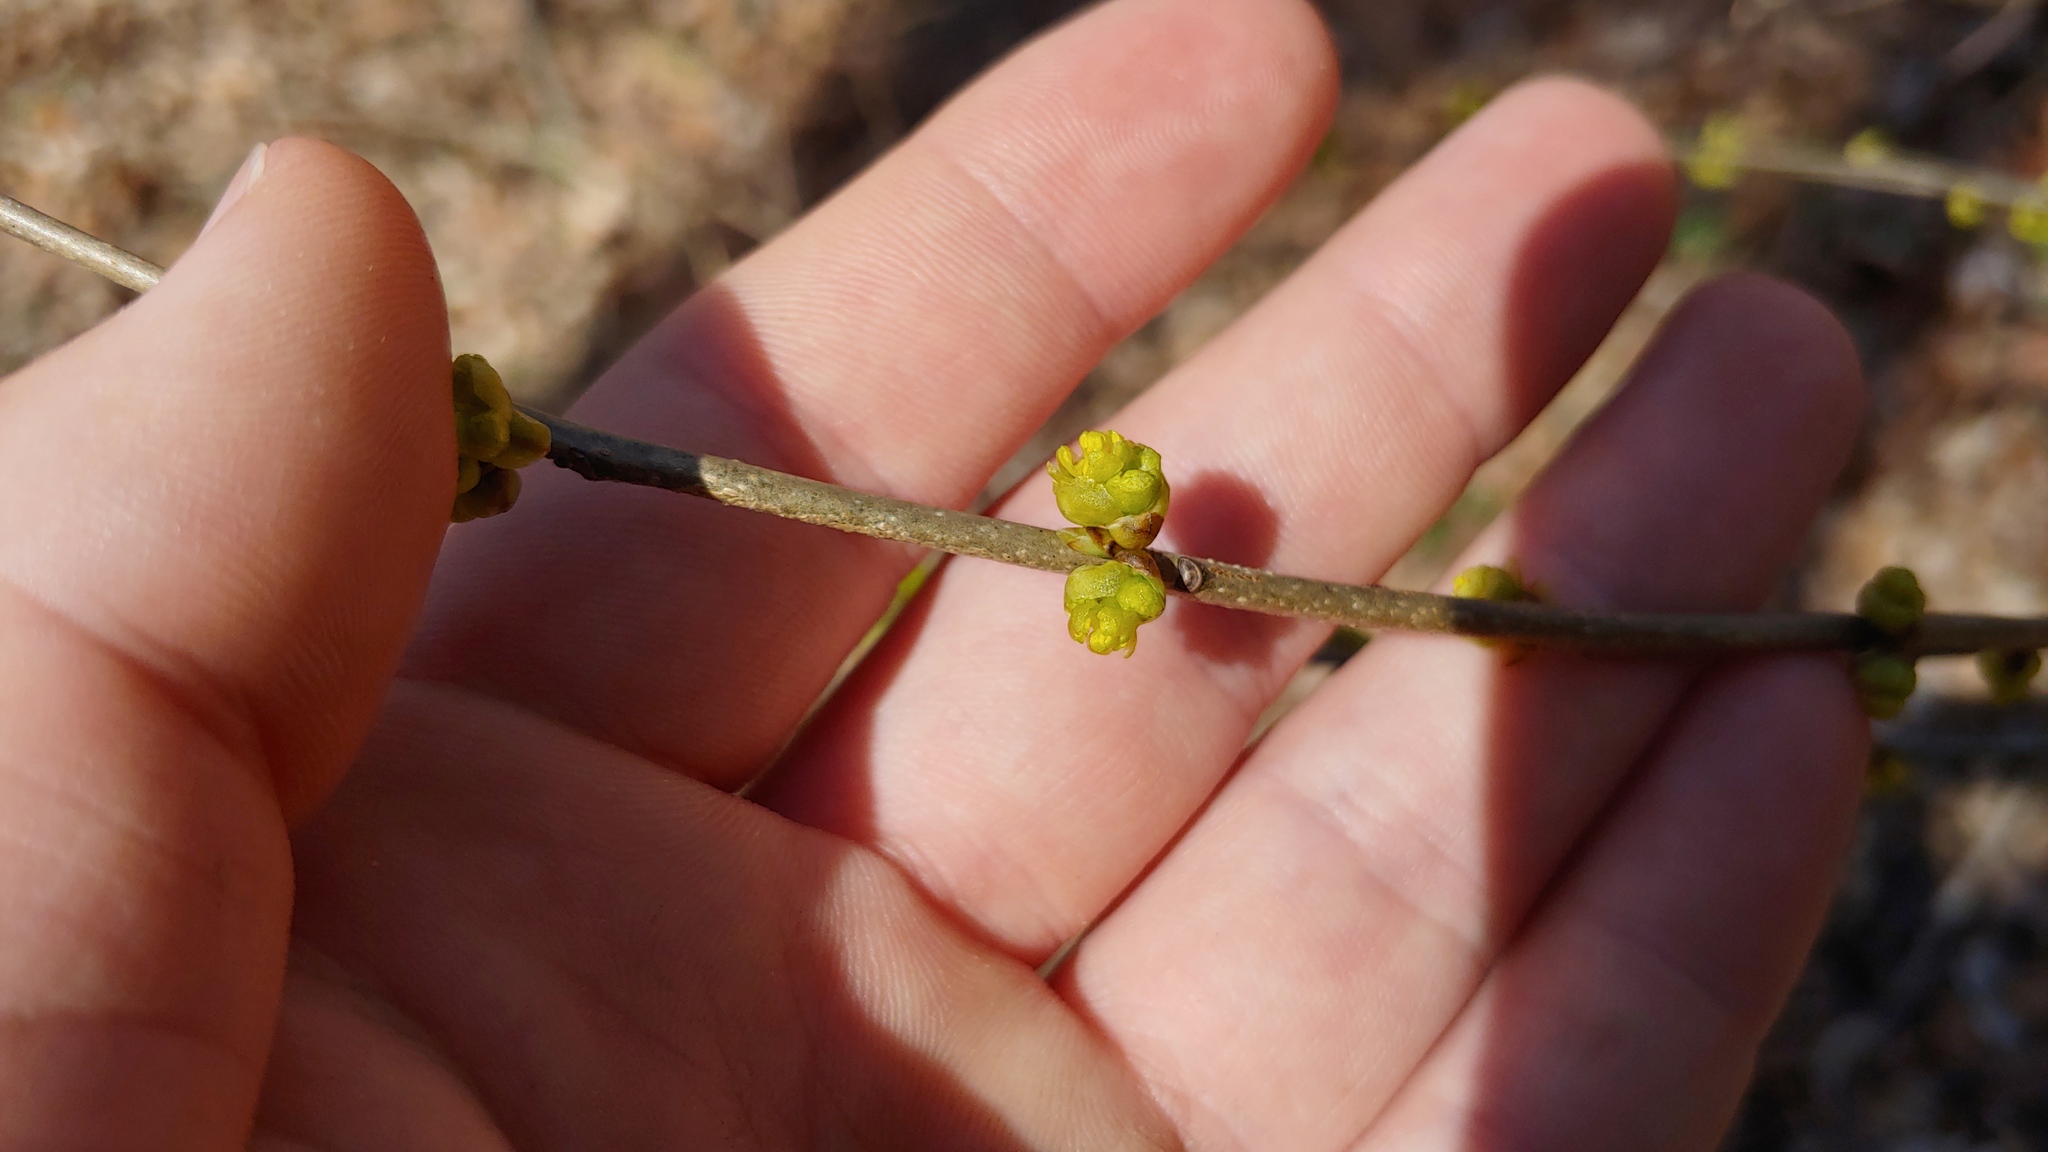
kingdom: Plantae
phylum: Tracheophyta
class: Magnoliopsida
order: Laurales
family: Lauraceae
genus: Lindera
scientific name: Lindera benzoin
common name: Spicebush
